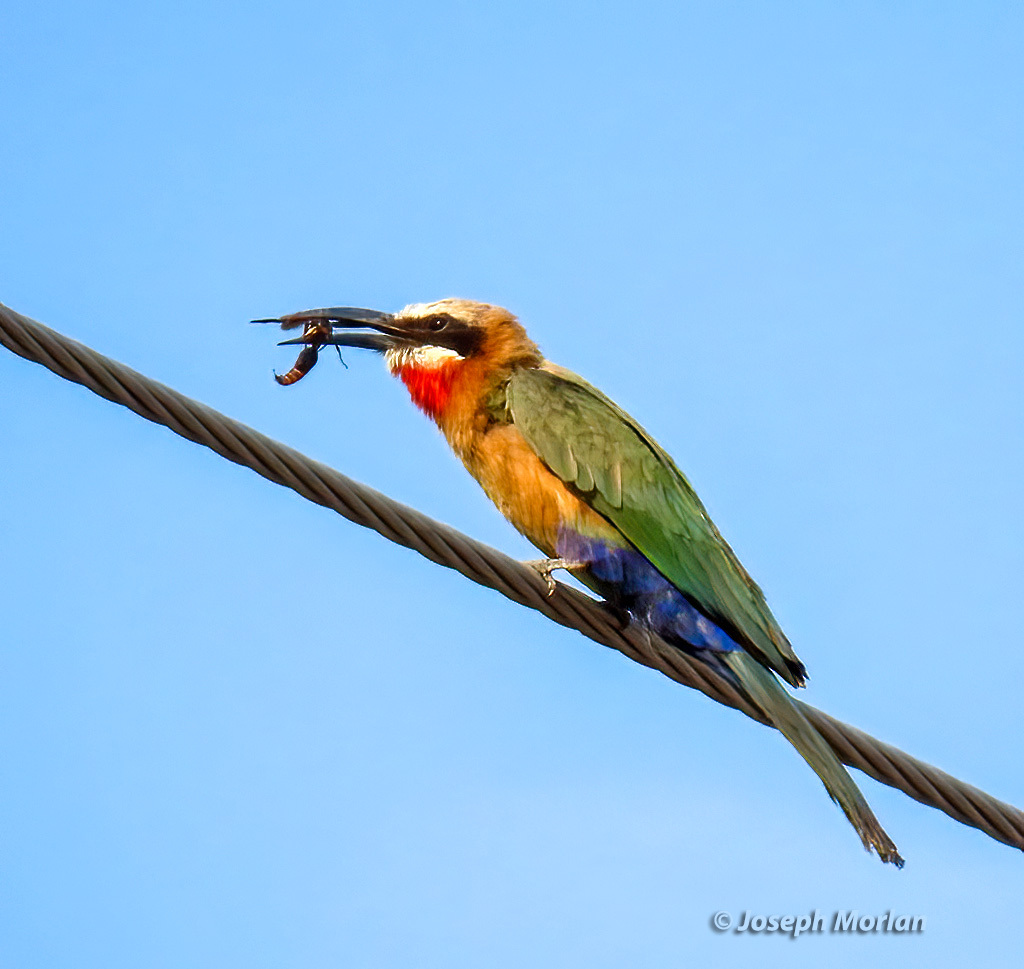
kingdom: Animalia
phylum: Chordata
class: Aves
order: Coraciiformes
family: Meropidae
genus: Merops
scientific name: Merops bullockoides
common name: White-fronted bee-eater
